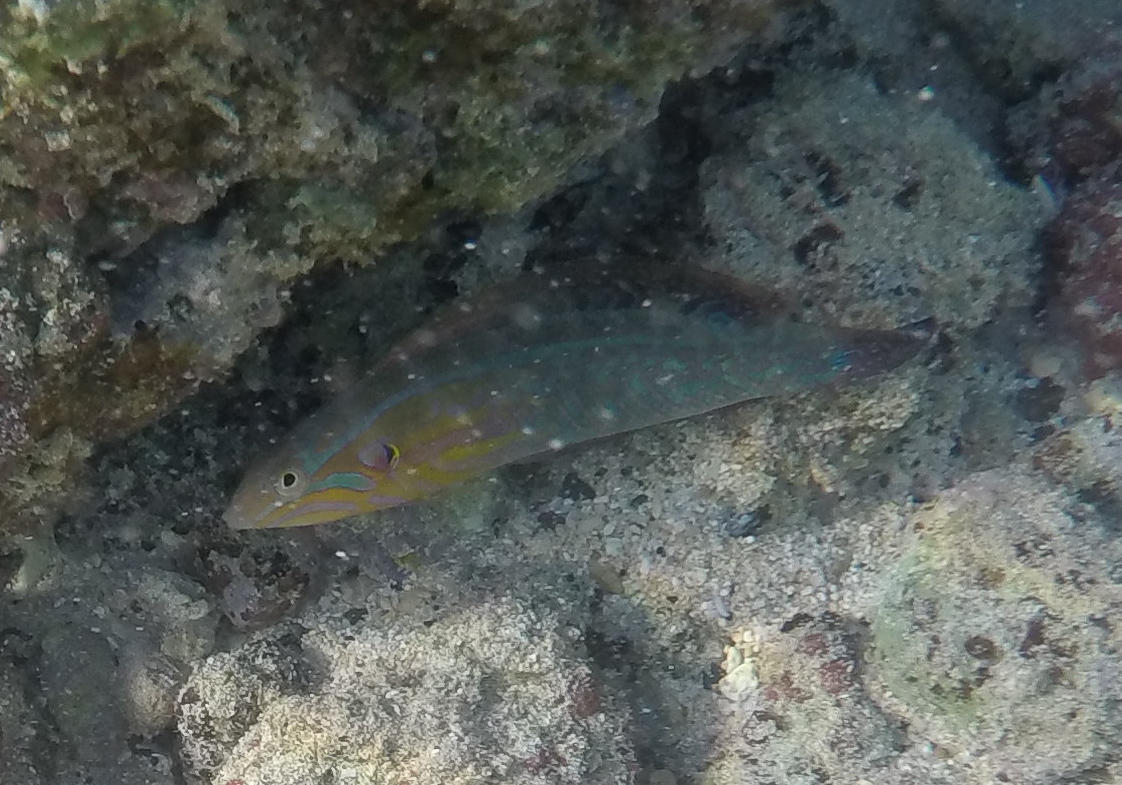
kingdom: Animalia
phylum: Chordata
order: Perciformes
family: Labridae
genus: Coris
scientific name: Coris venusta
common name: Elegant coris
